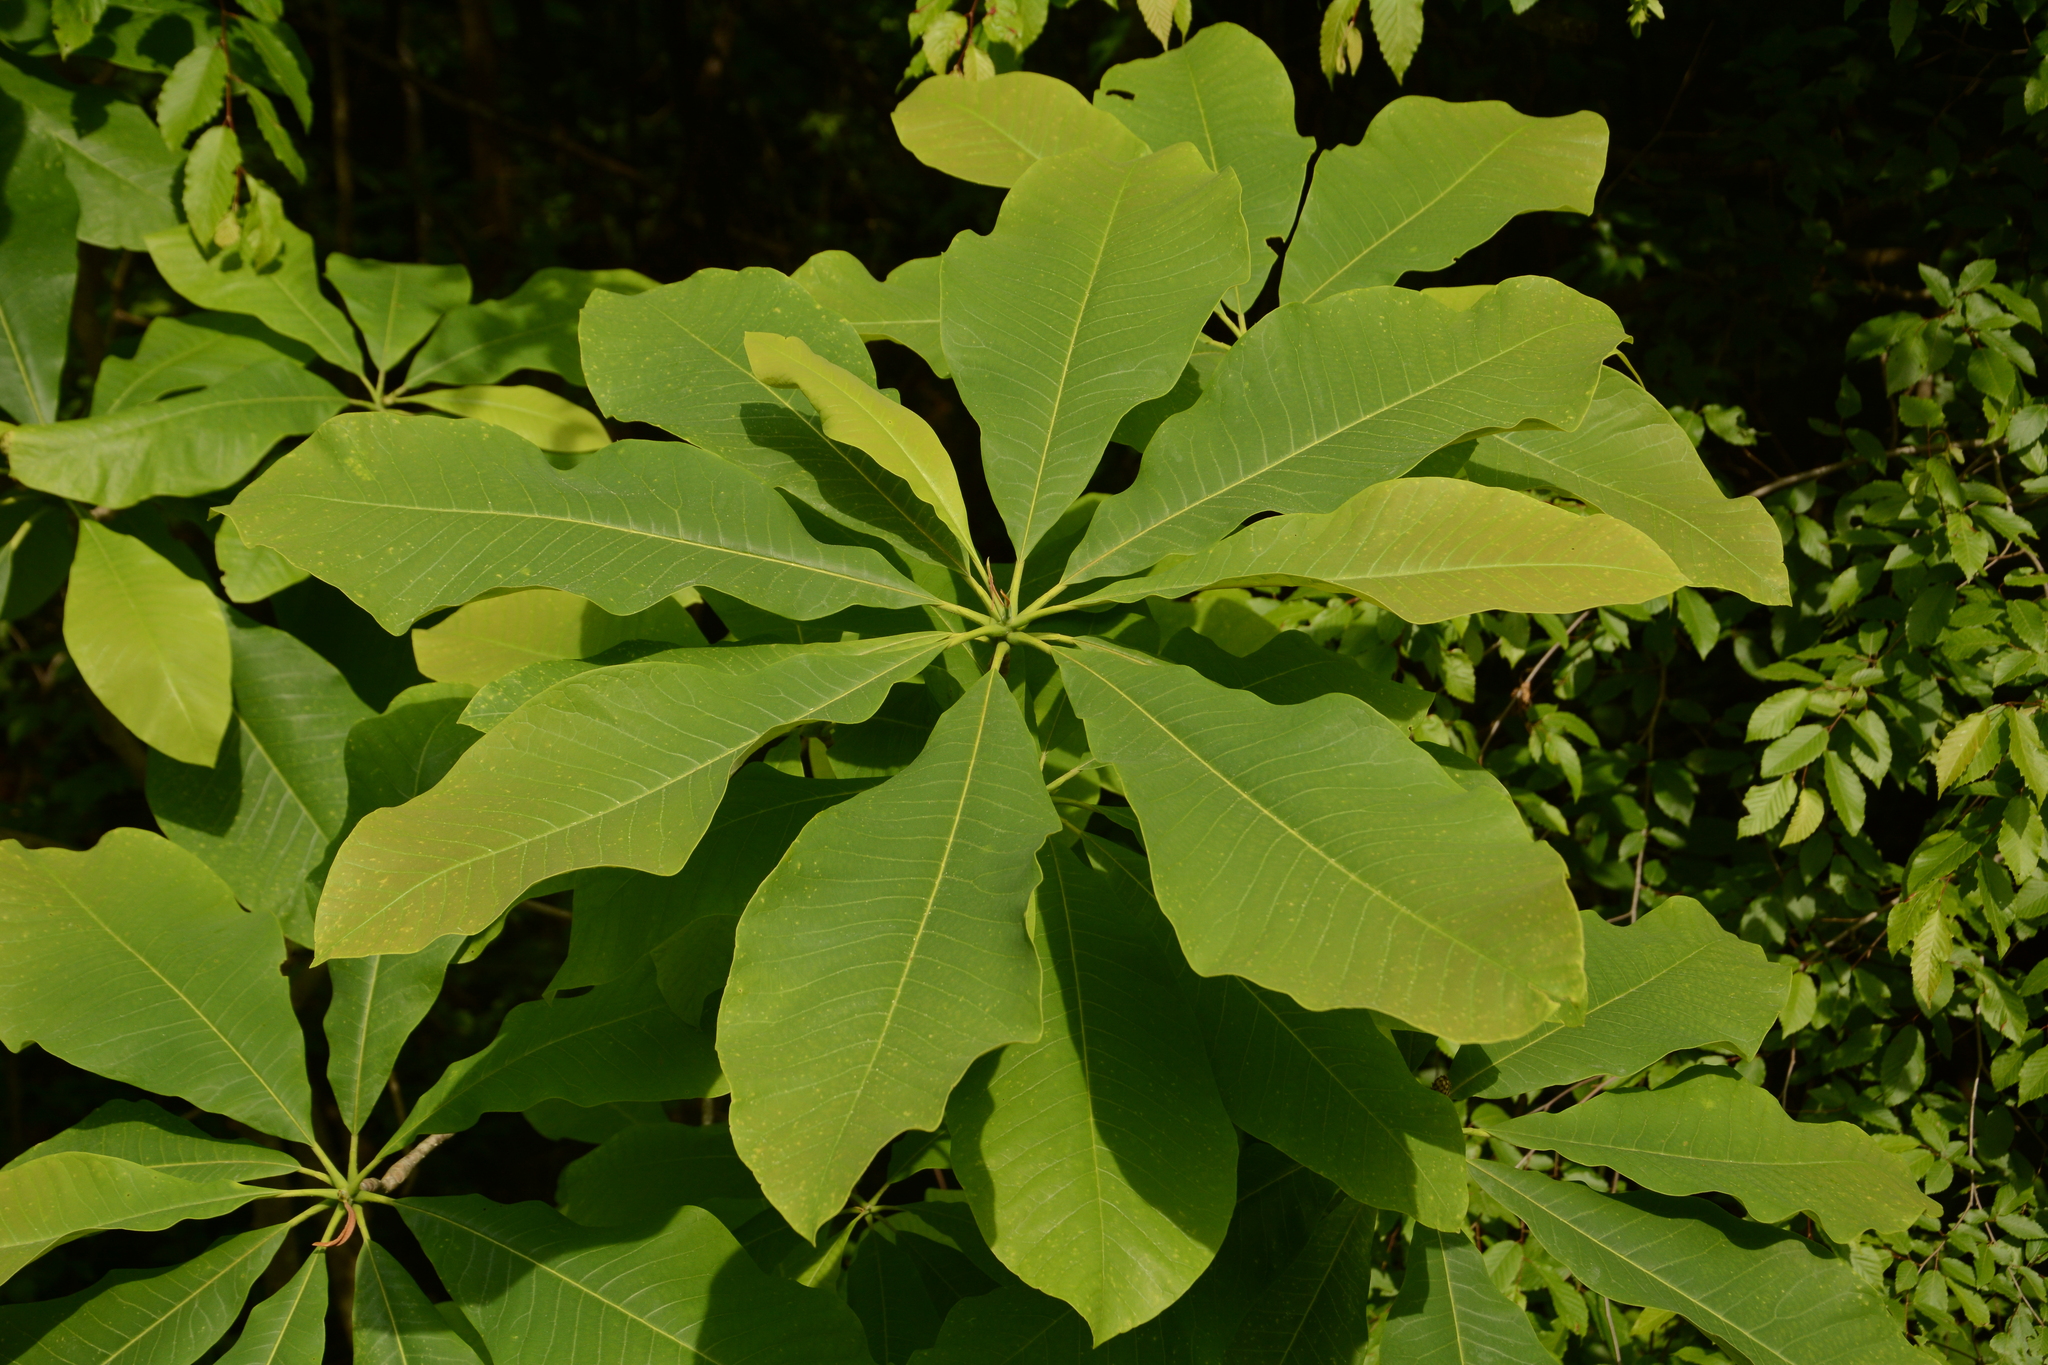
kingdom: Plantae
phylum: Tracheophyta
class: Magnoliopsida
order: Magnoliales
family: Magnoliaceae
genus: Magnolia
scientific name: Magnolia tripetala
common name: Umbrella magnolia
